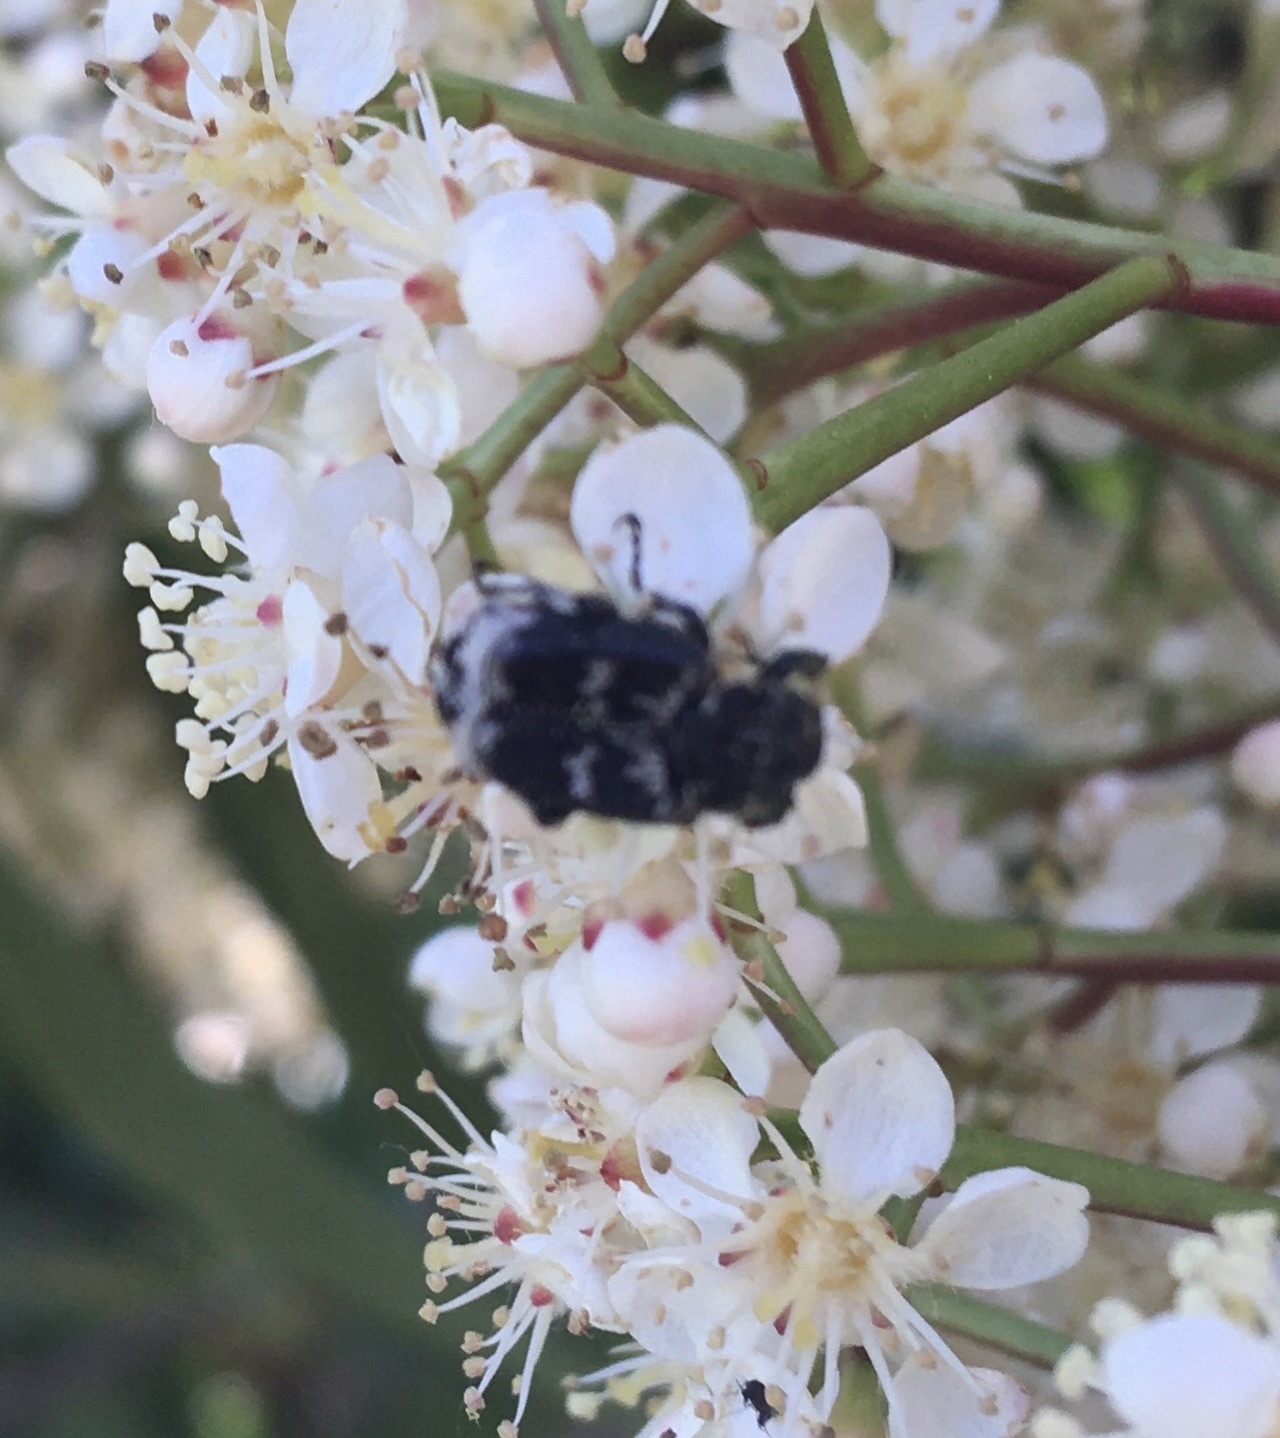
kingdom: Animalia
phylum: Arthropoda
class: Insecta
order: Coleoptera
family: Scarabaeidae
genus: Valgus
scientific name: Valgus hemipterus
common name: Bug flower chafer
